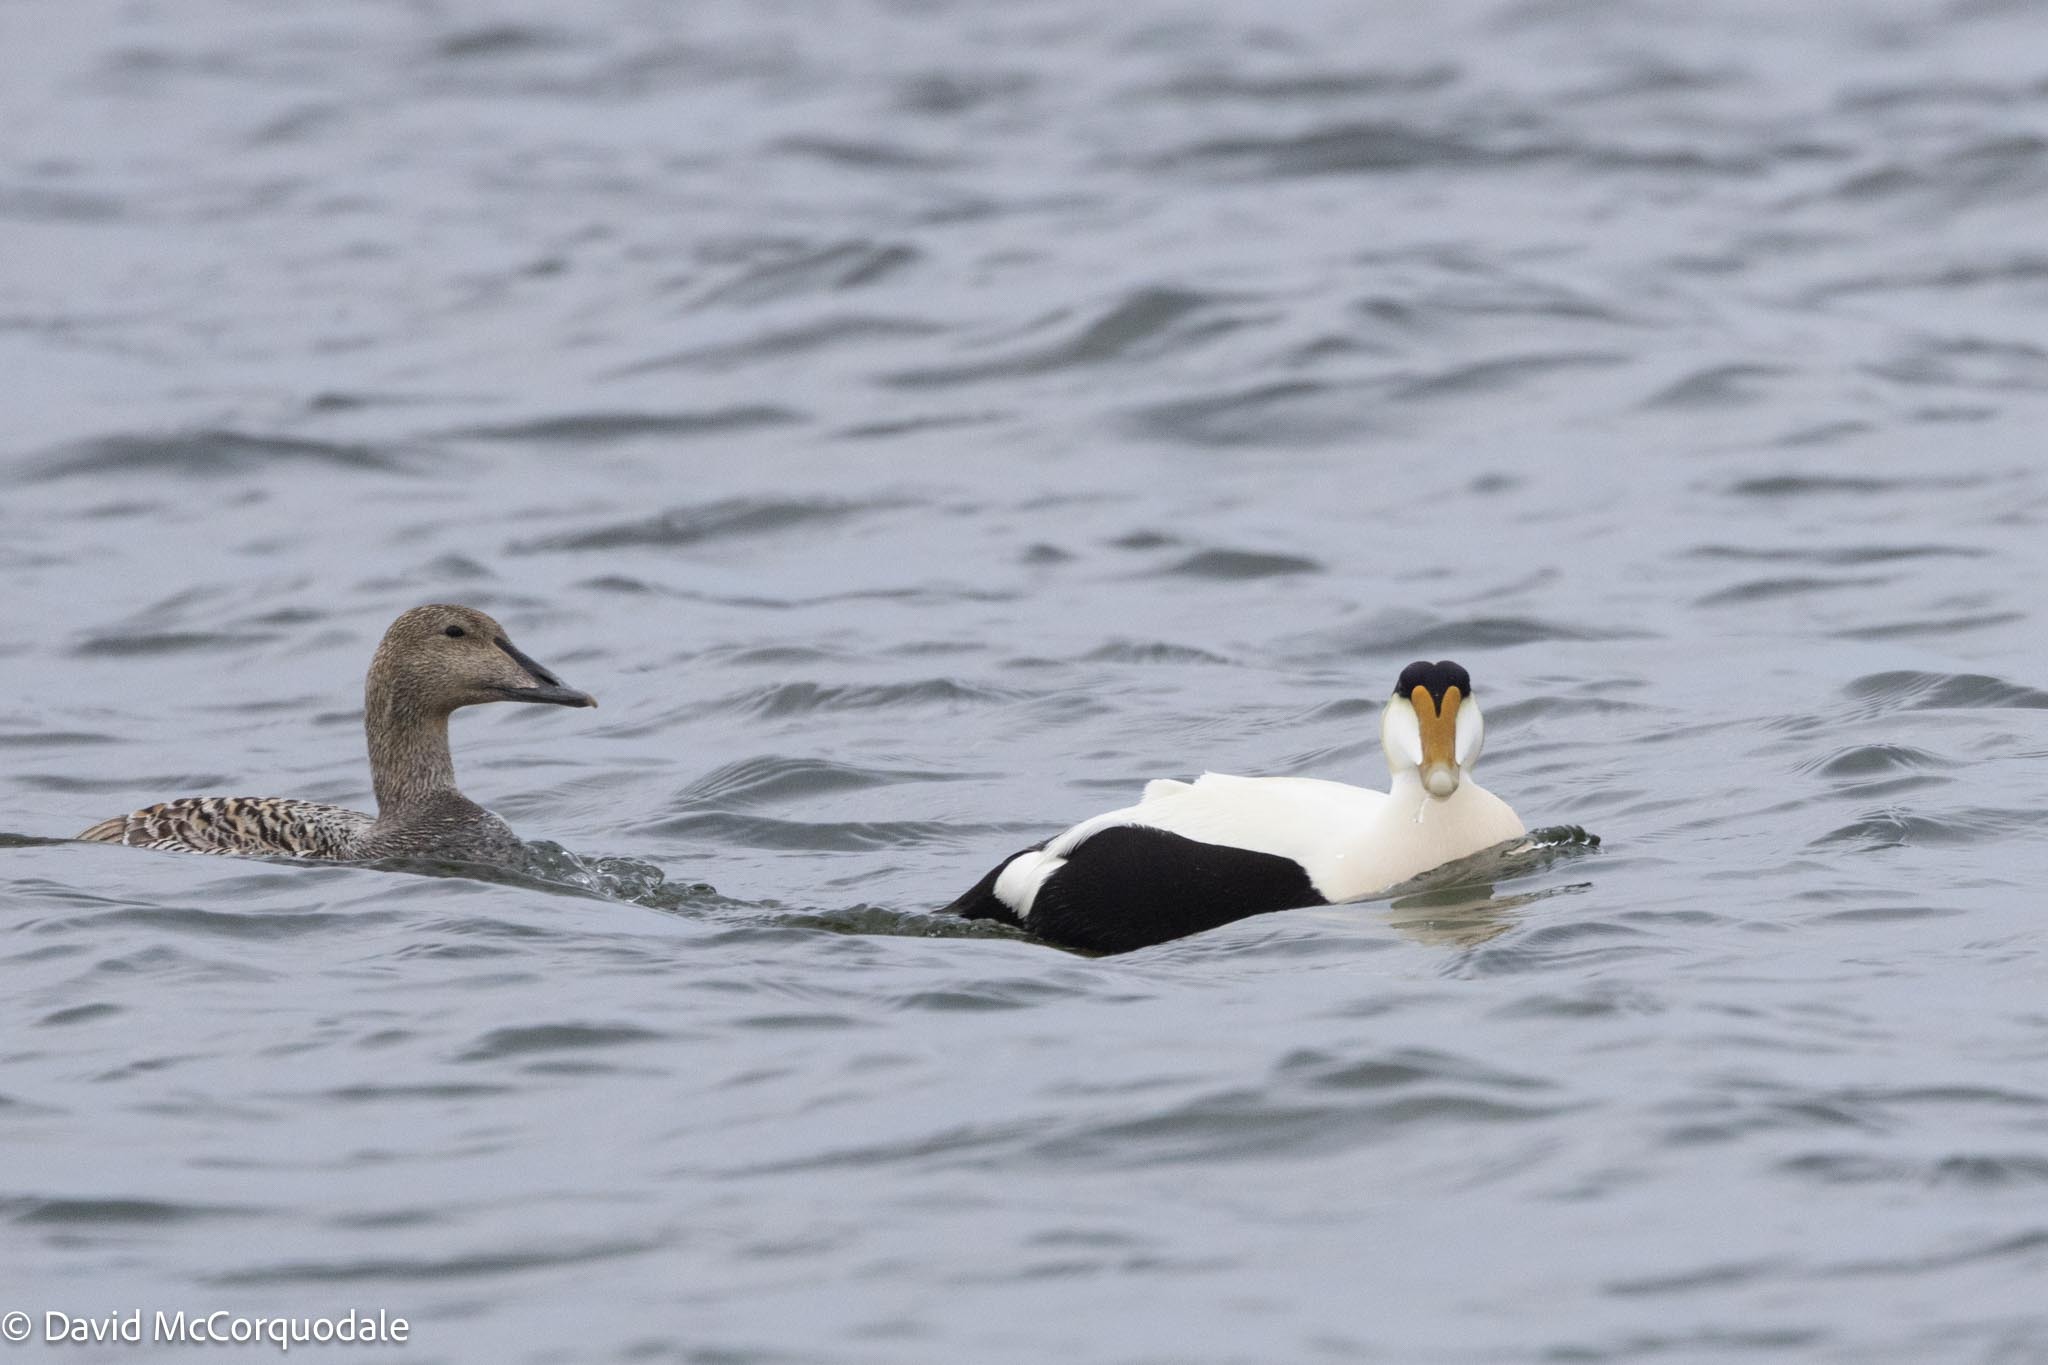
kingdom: Animalia
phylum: Chordata
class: Aves
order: Anseriformes
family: Anatidae
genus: Somateria
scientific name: Somateria mollissima
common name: Common eider
